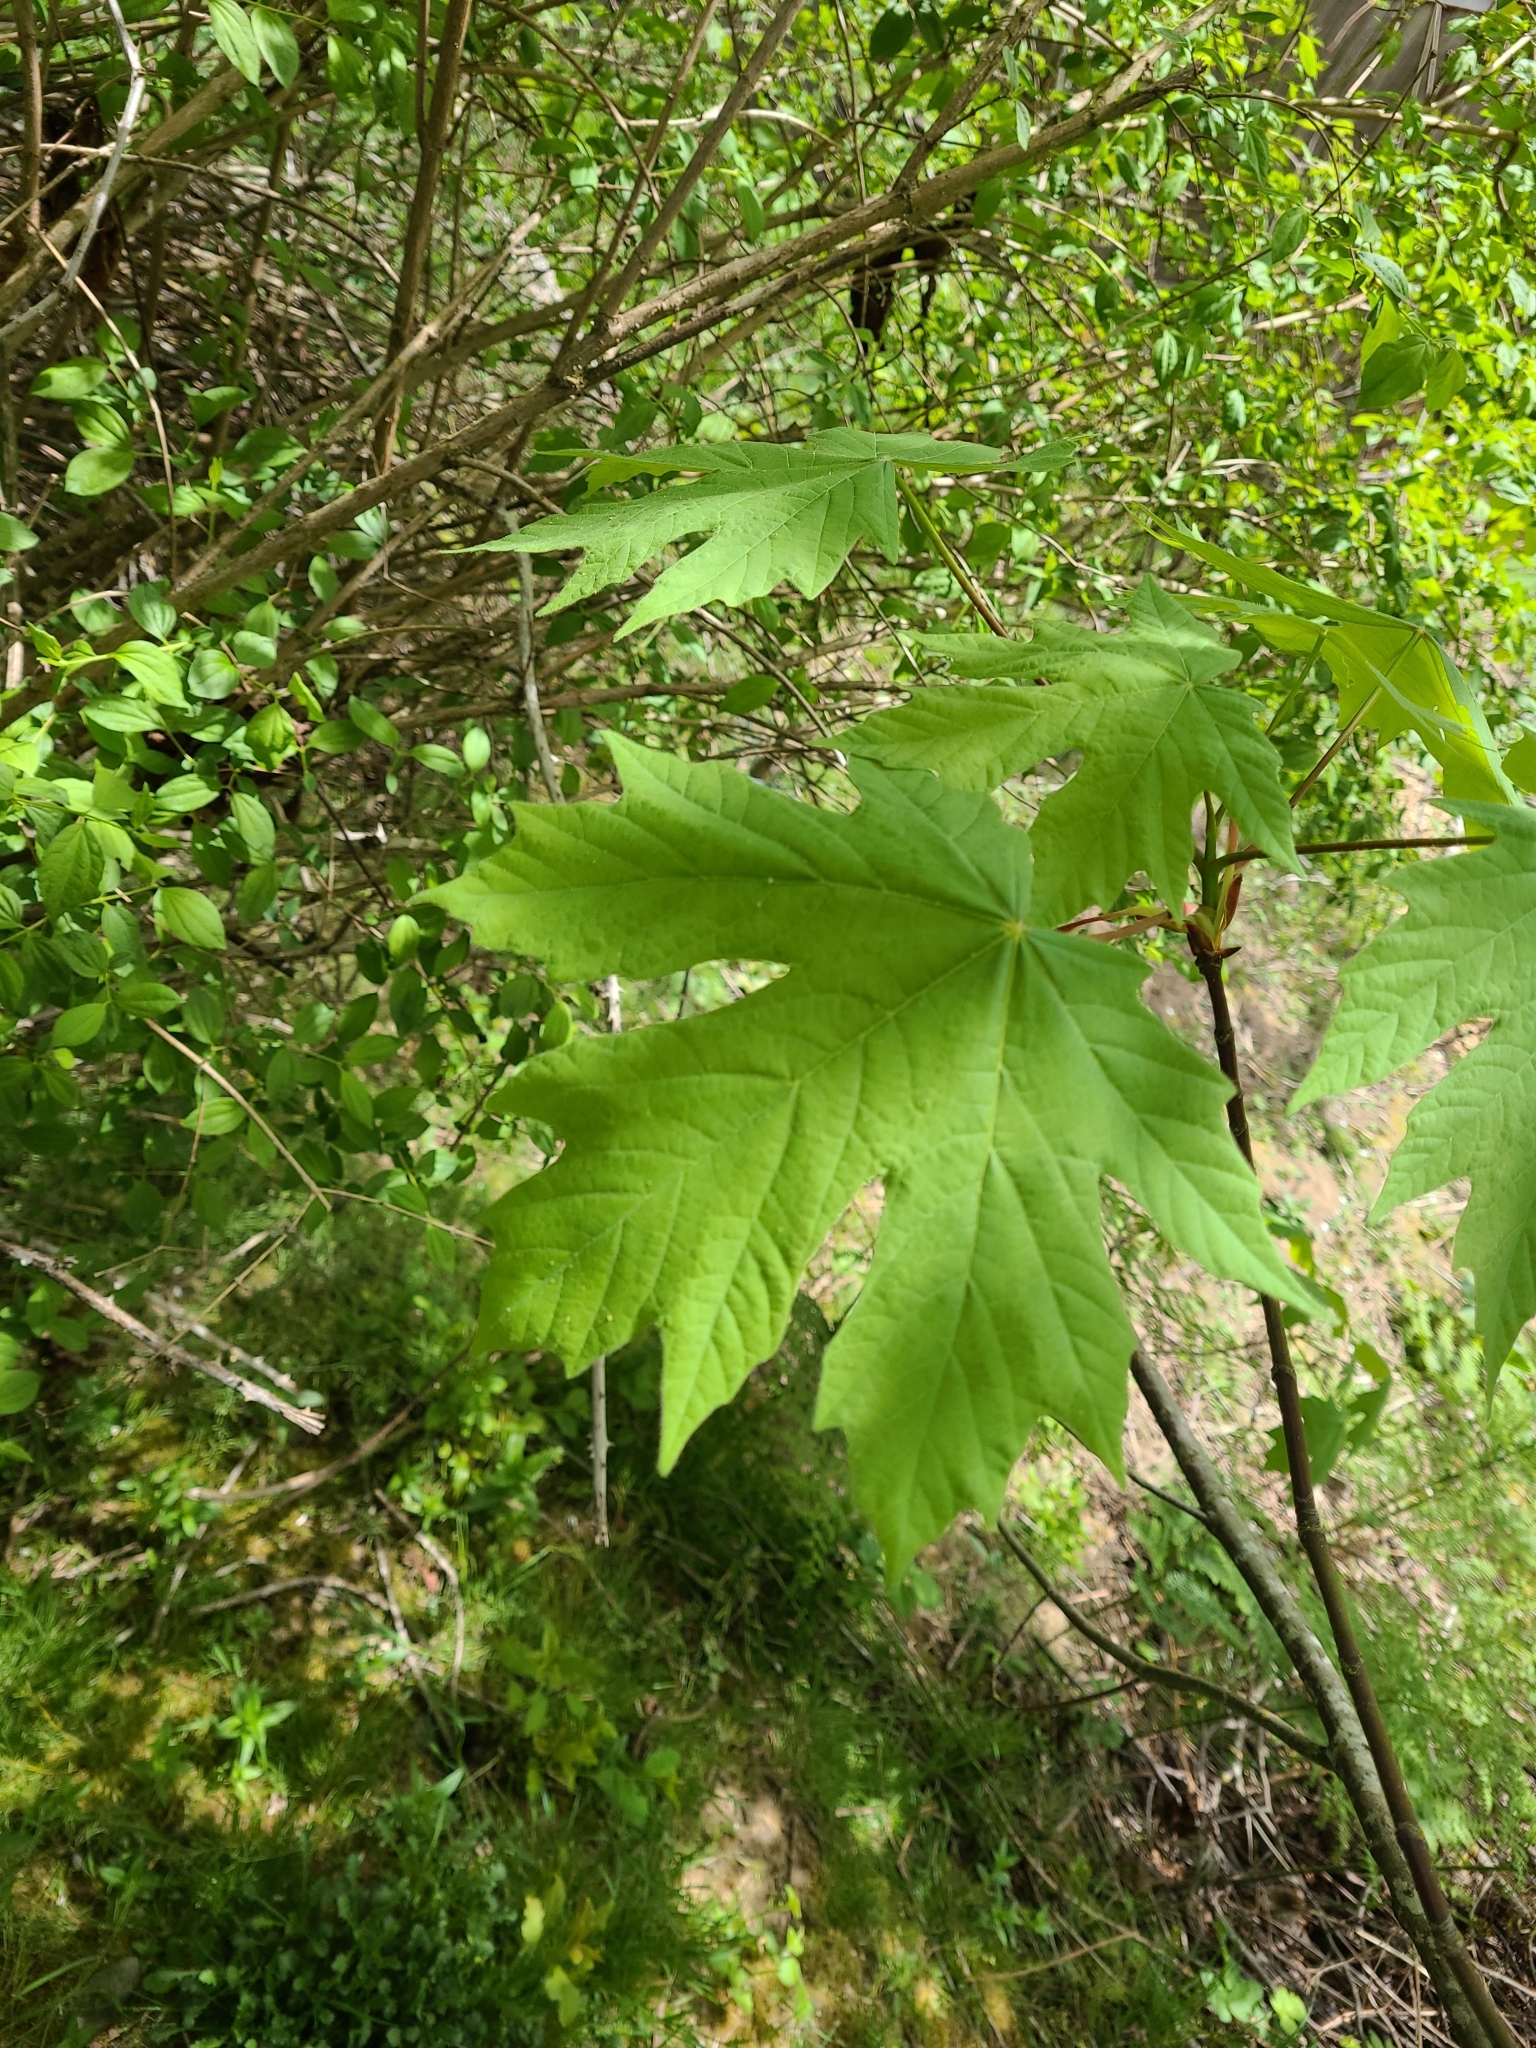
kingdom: Plantae
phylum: Tracheophyta
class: Magnoliopsida
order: Sapindales
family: Sapindaceae
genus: Acer
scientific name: Acer macrophyllum
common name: Oregon maple
